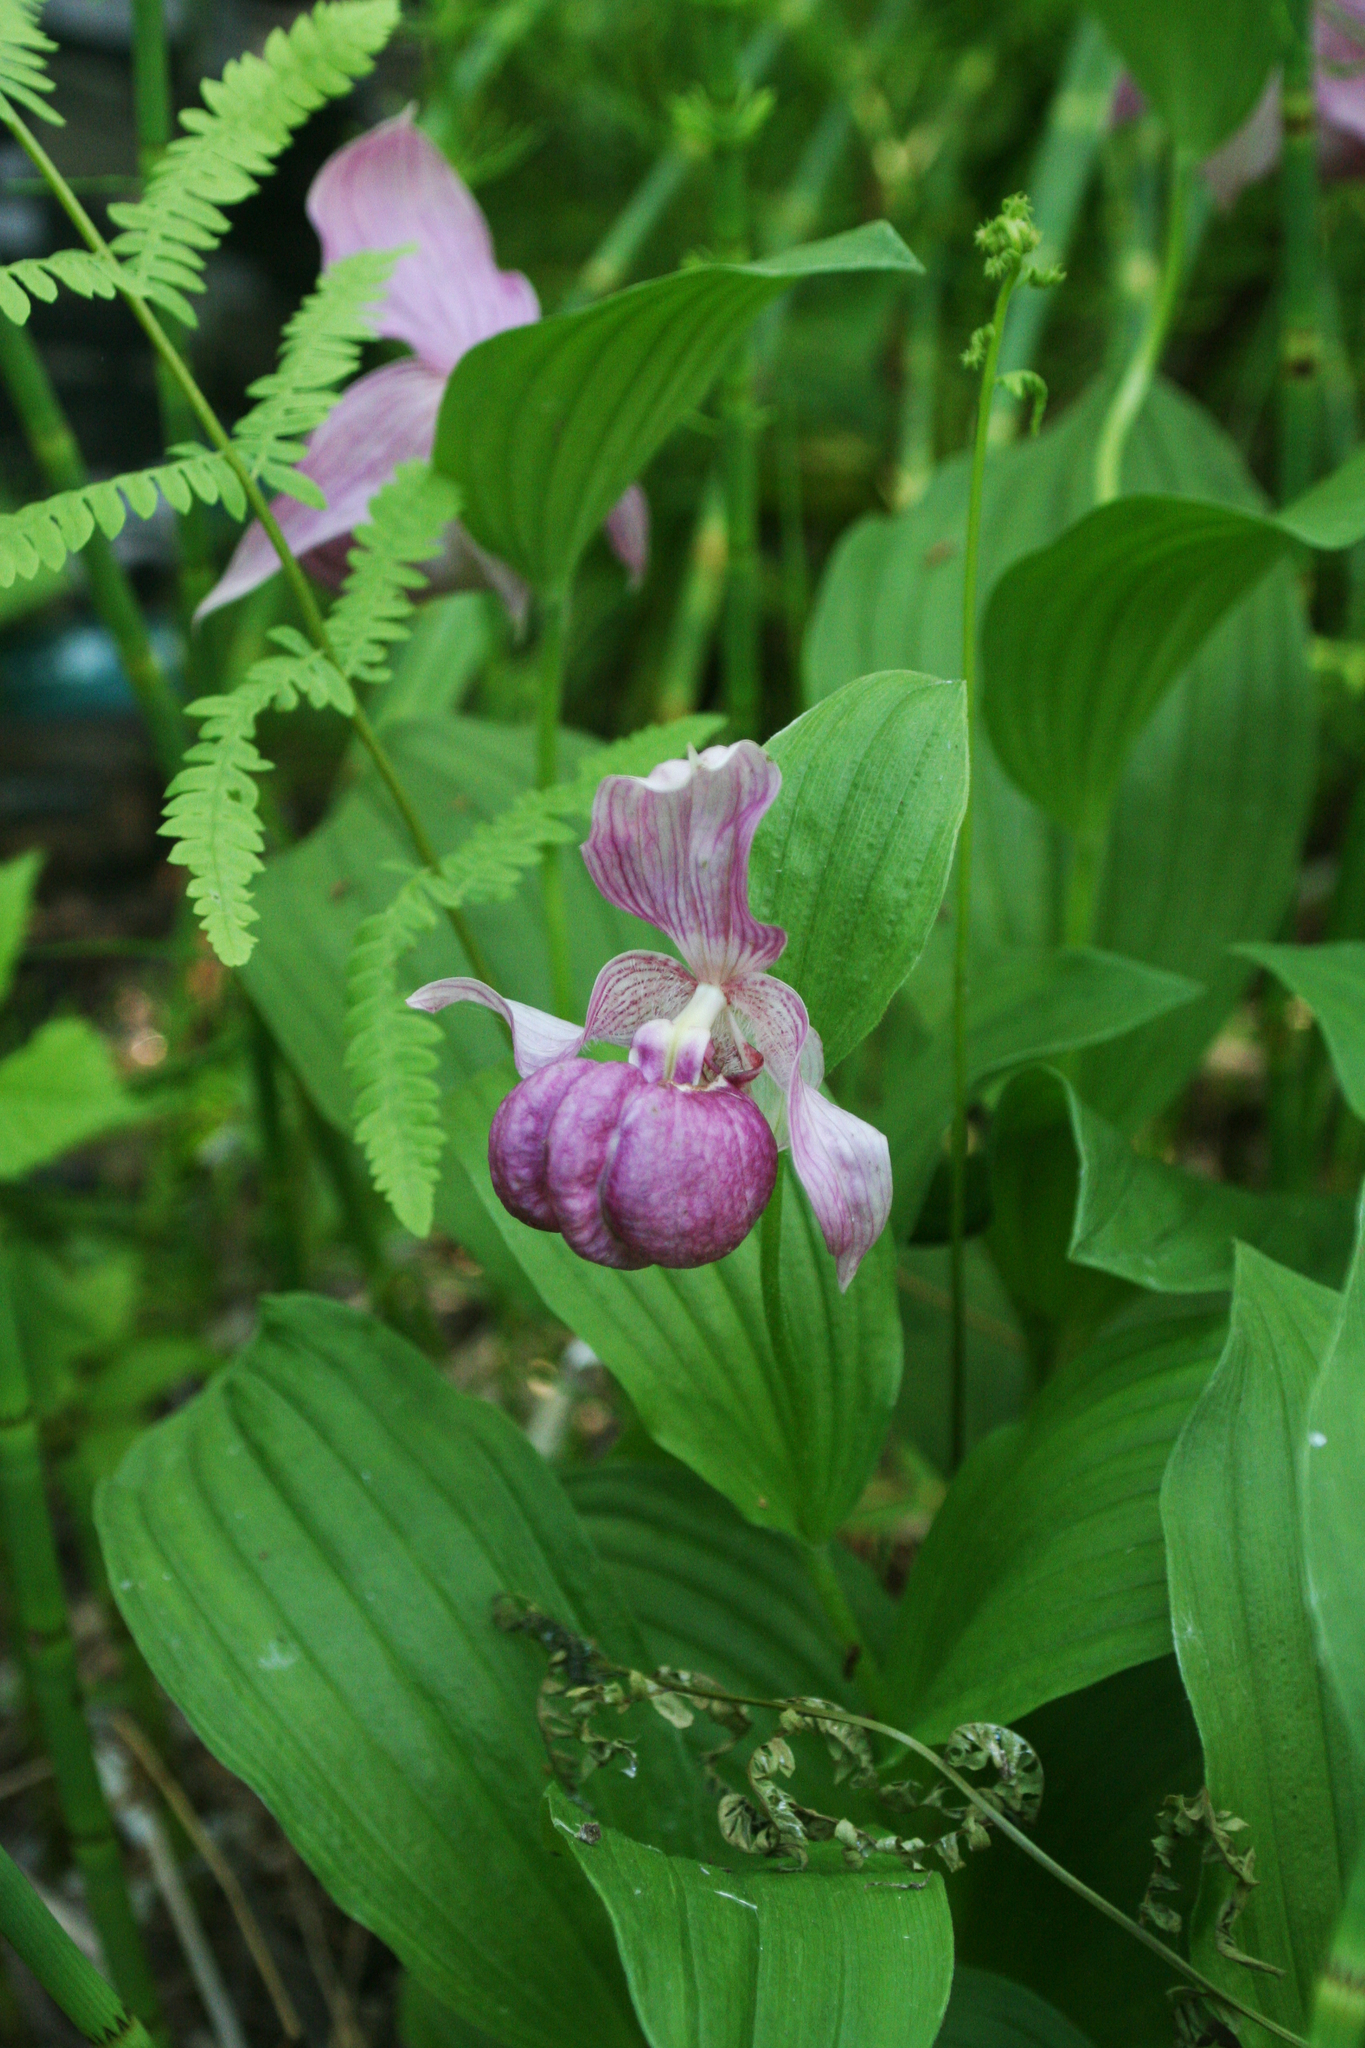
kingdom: Plantae
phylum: Tracheophyta
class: Liliopsida
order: Asparagales
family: Orchidaceae
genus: Cypripedium
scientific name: Cypripedium macranthos
